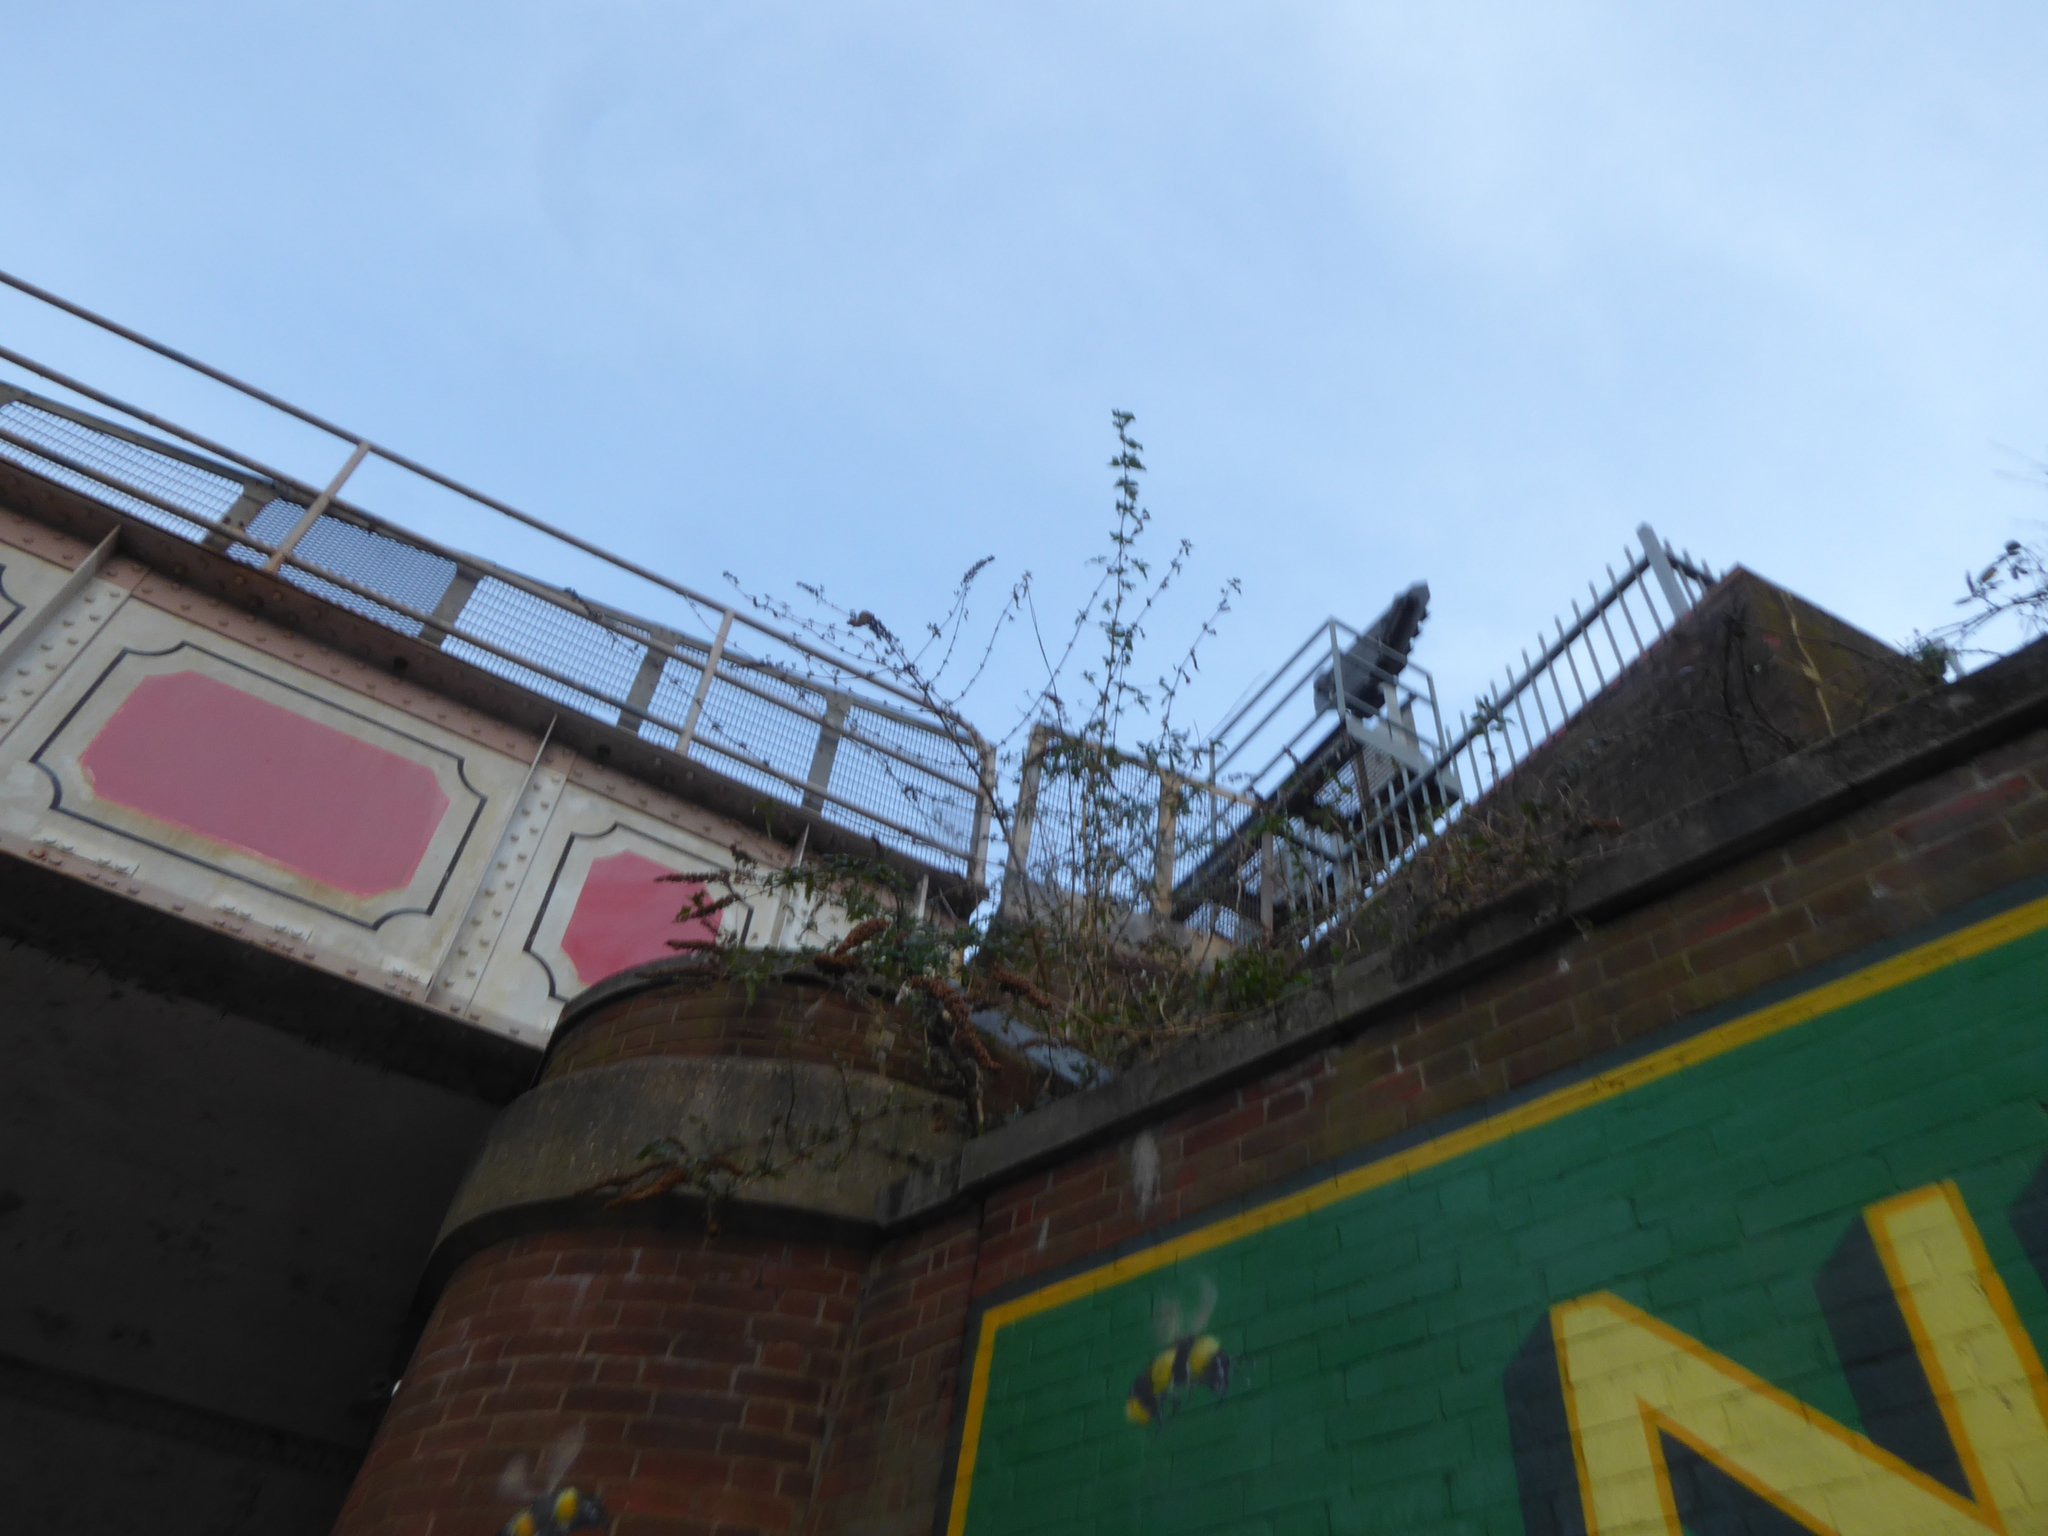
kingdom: Plantae
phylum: Tracheophyta
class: Magnoliopsida
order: Lamiales
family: Scrophulariaceae
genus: Buddleja
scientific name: Buddleja davidii
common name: Butterfly-bush
